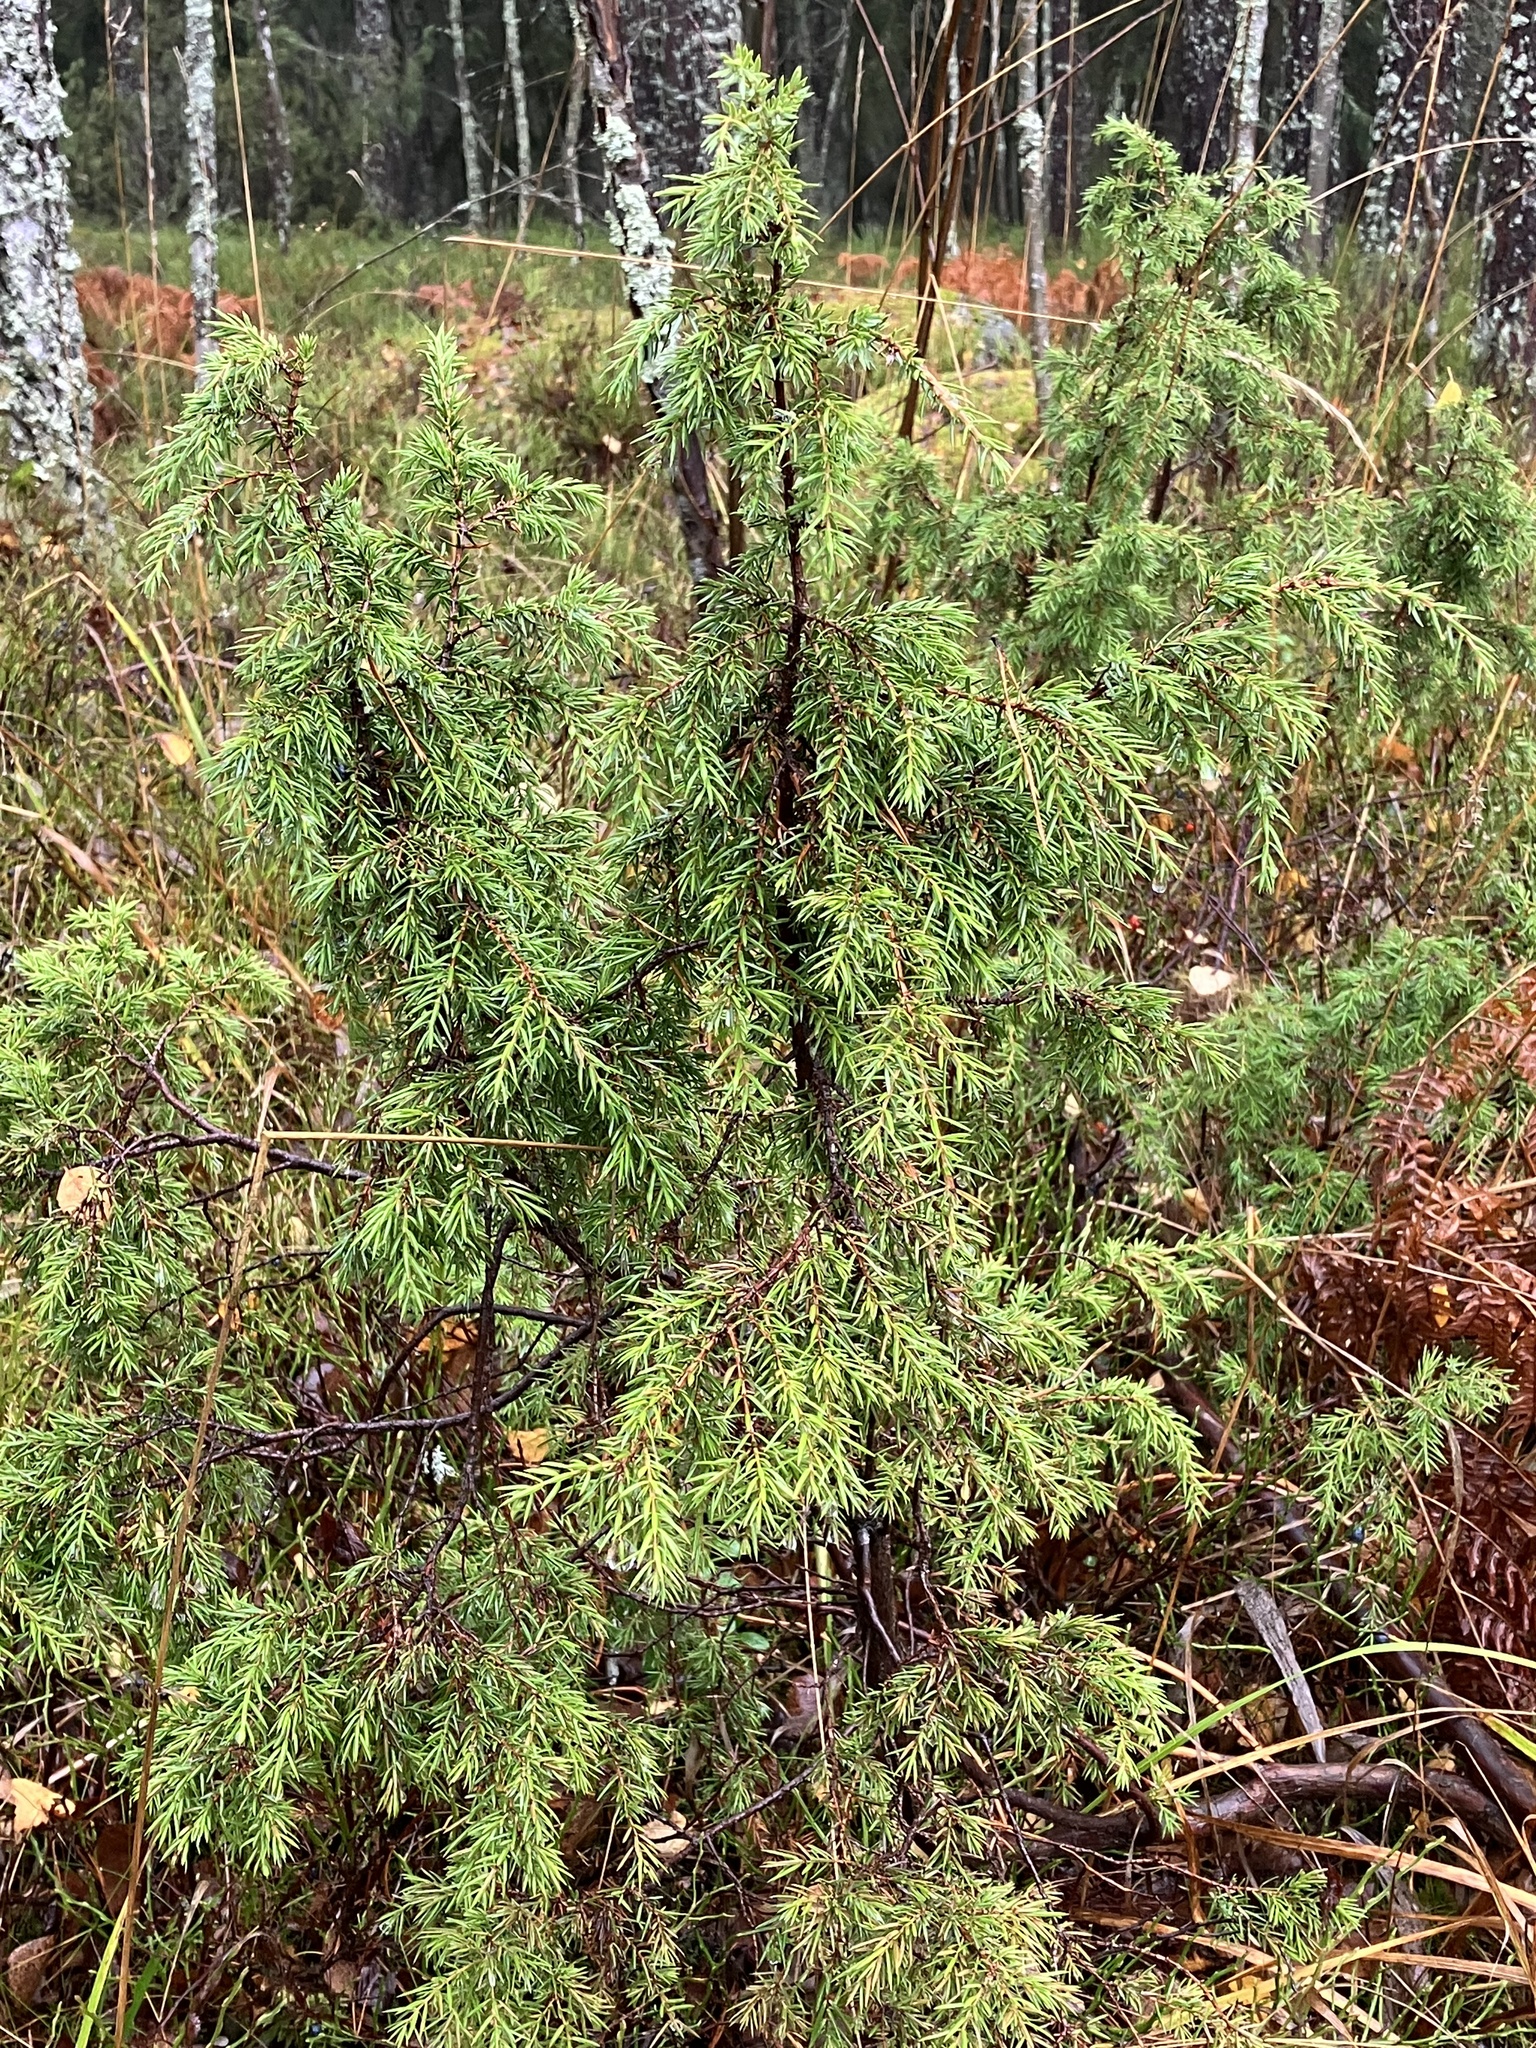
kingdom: Plantae
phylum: Tracheophyta
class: Pinopsida
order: Pinales
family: Cupressaceae
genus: Juniperus
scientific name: Juniperus communis
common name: Common juniper
